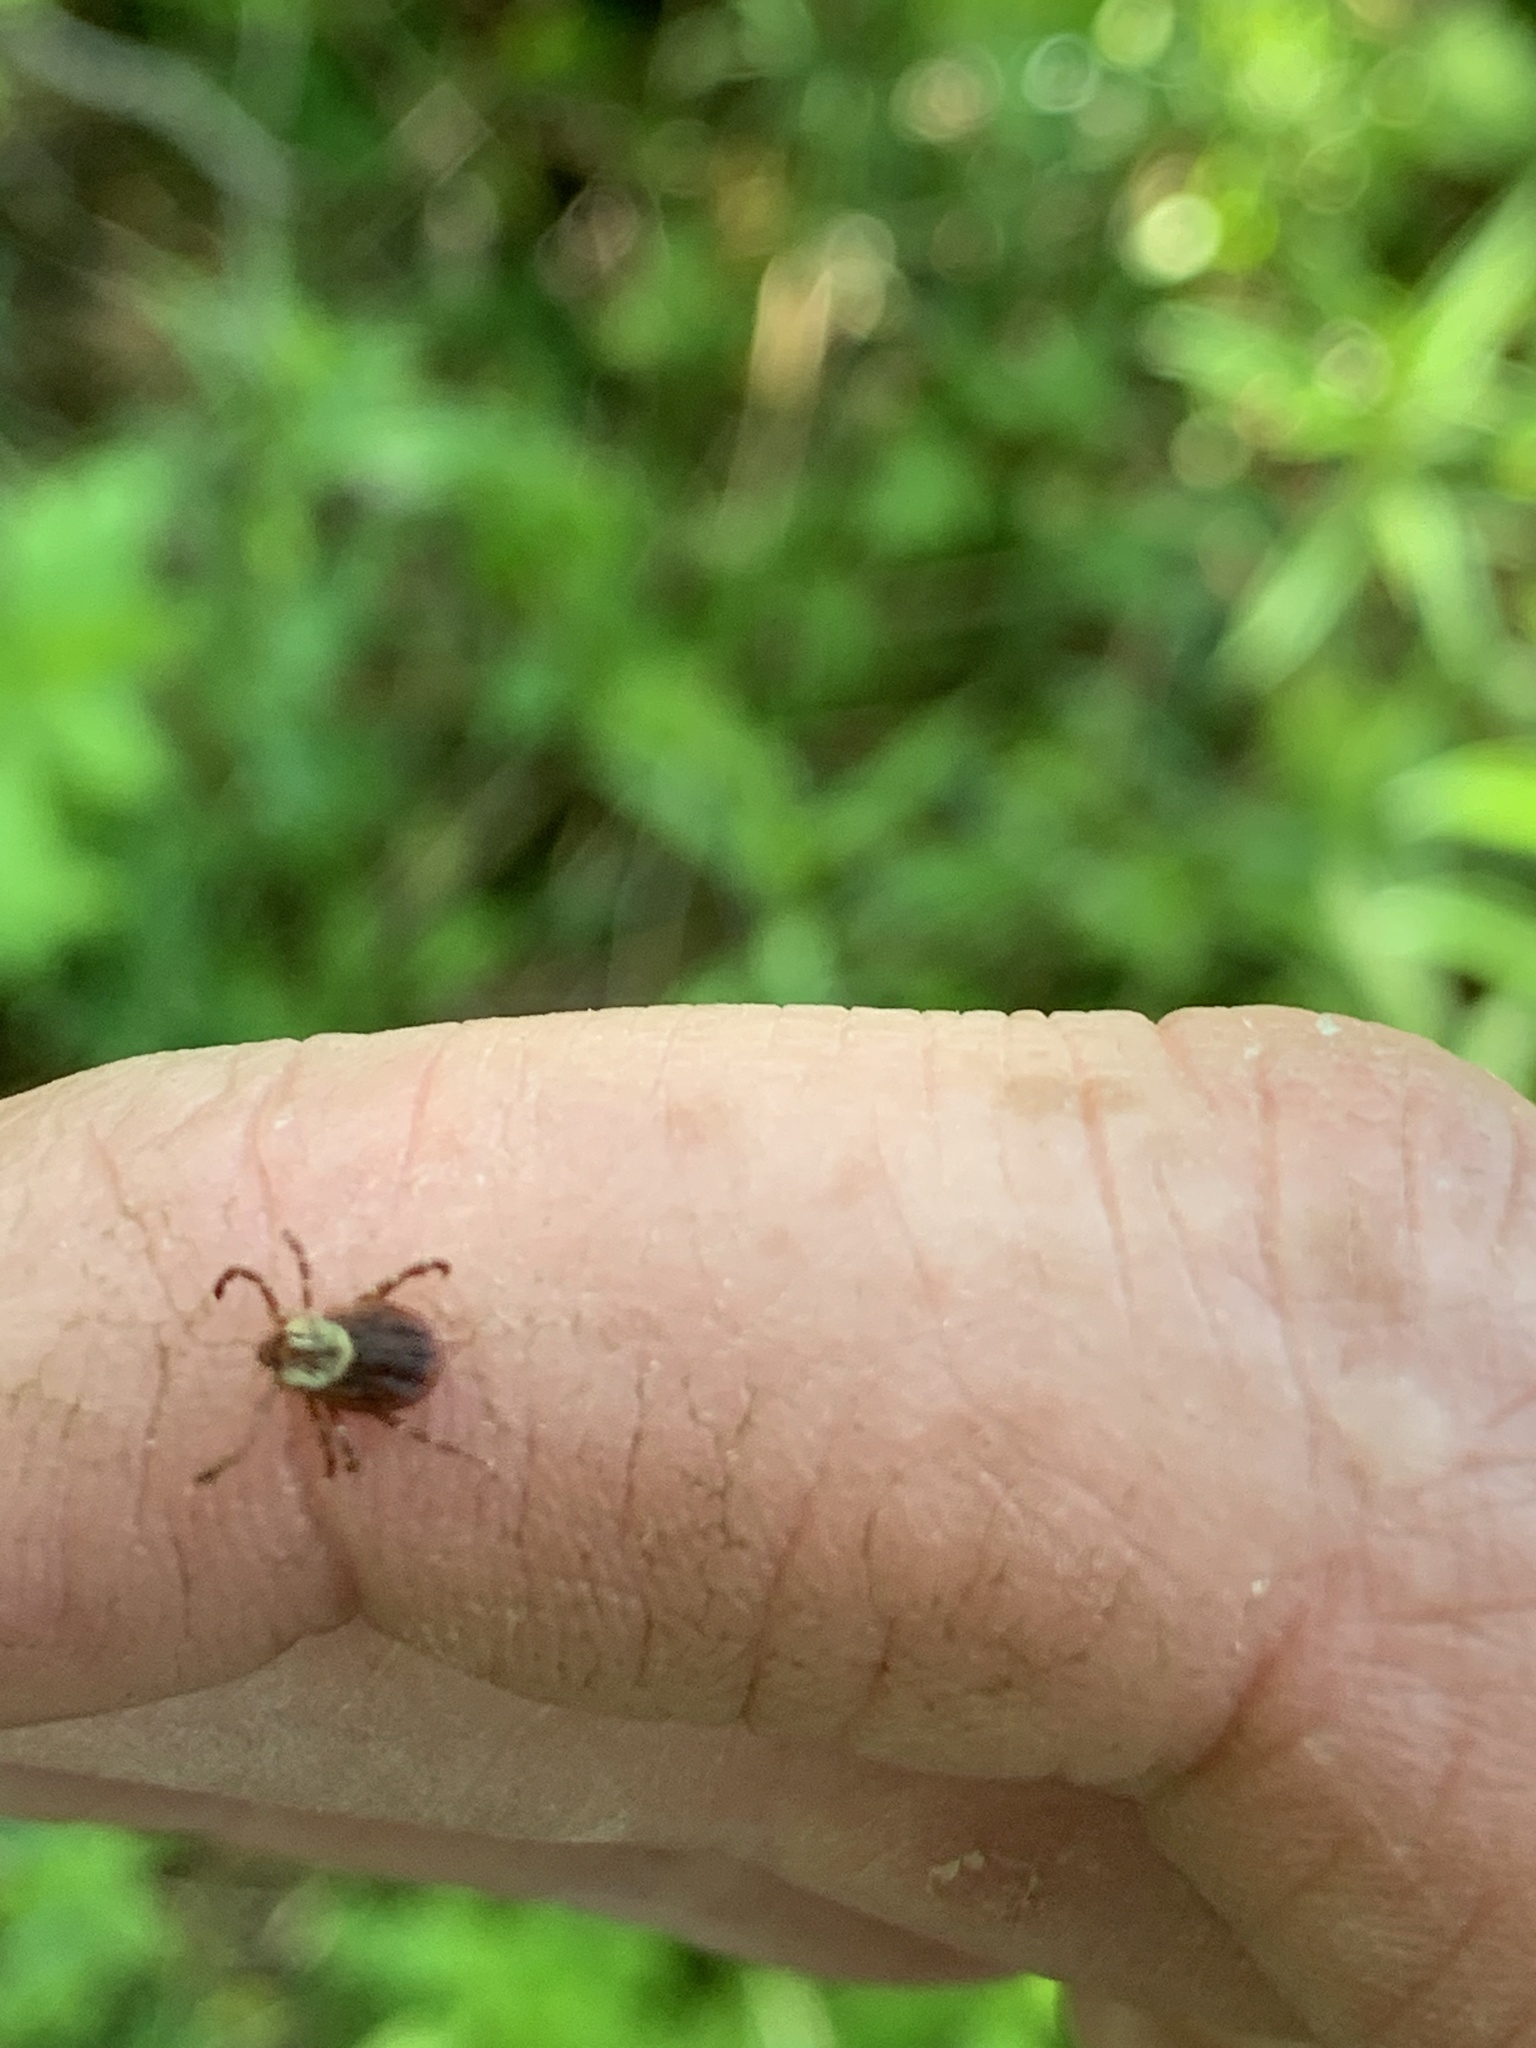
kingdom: Animalia
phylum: Arthropoda
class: Arachnida
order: Ixodida
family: Ixodidae
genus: Dermacentor
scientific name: Dermacentor variabilis
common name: American dog tick
